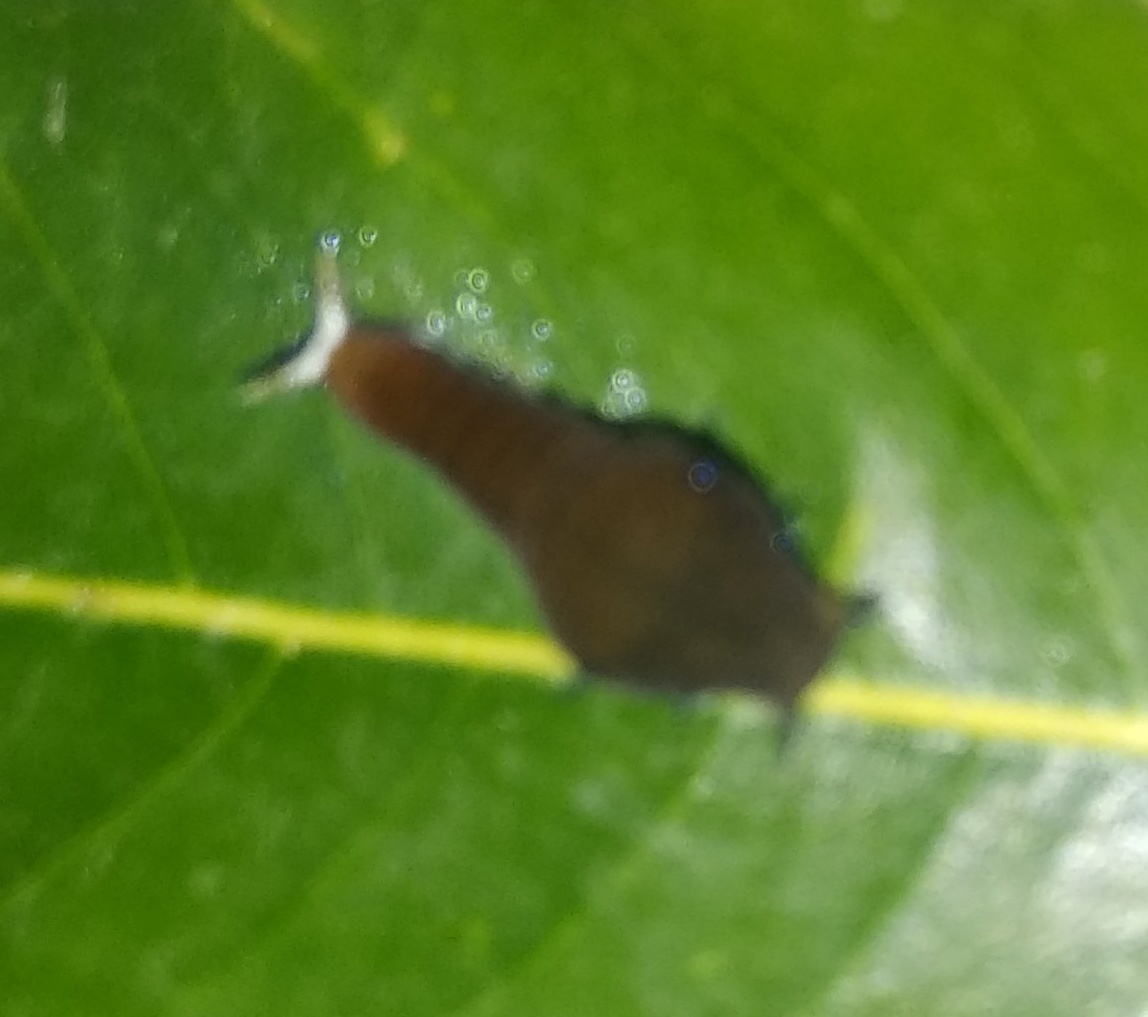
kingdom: Animalia
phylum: Arthropoda
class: Insecta
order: Lepidoptera
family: Papilionidae
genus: Graphium
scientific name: Graphium doson
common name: Common jay
